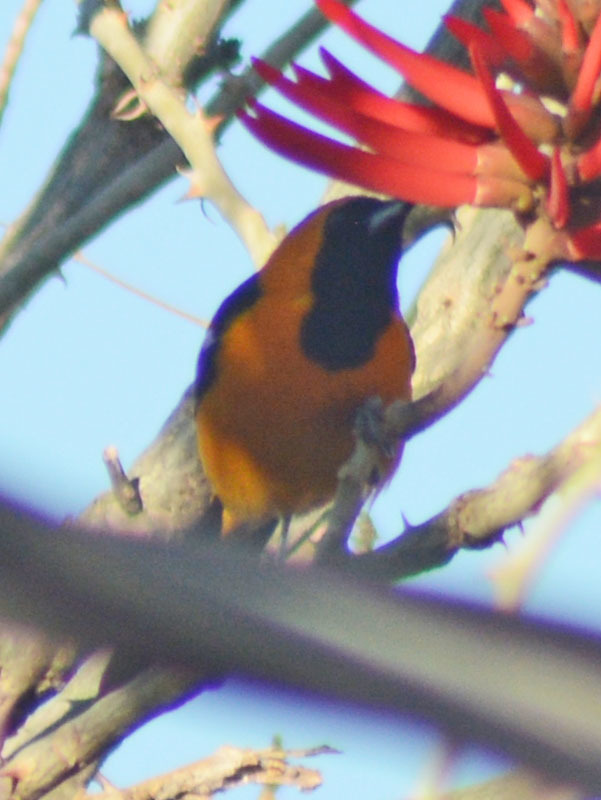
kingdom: Animalia
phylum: Chordata
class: Aves
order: Passeriformes
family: Icteridae
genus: Icterus
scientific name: Icterus cucullatus
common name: Hooded oriole
